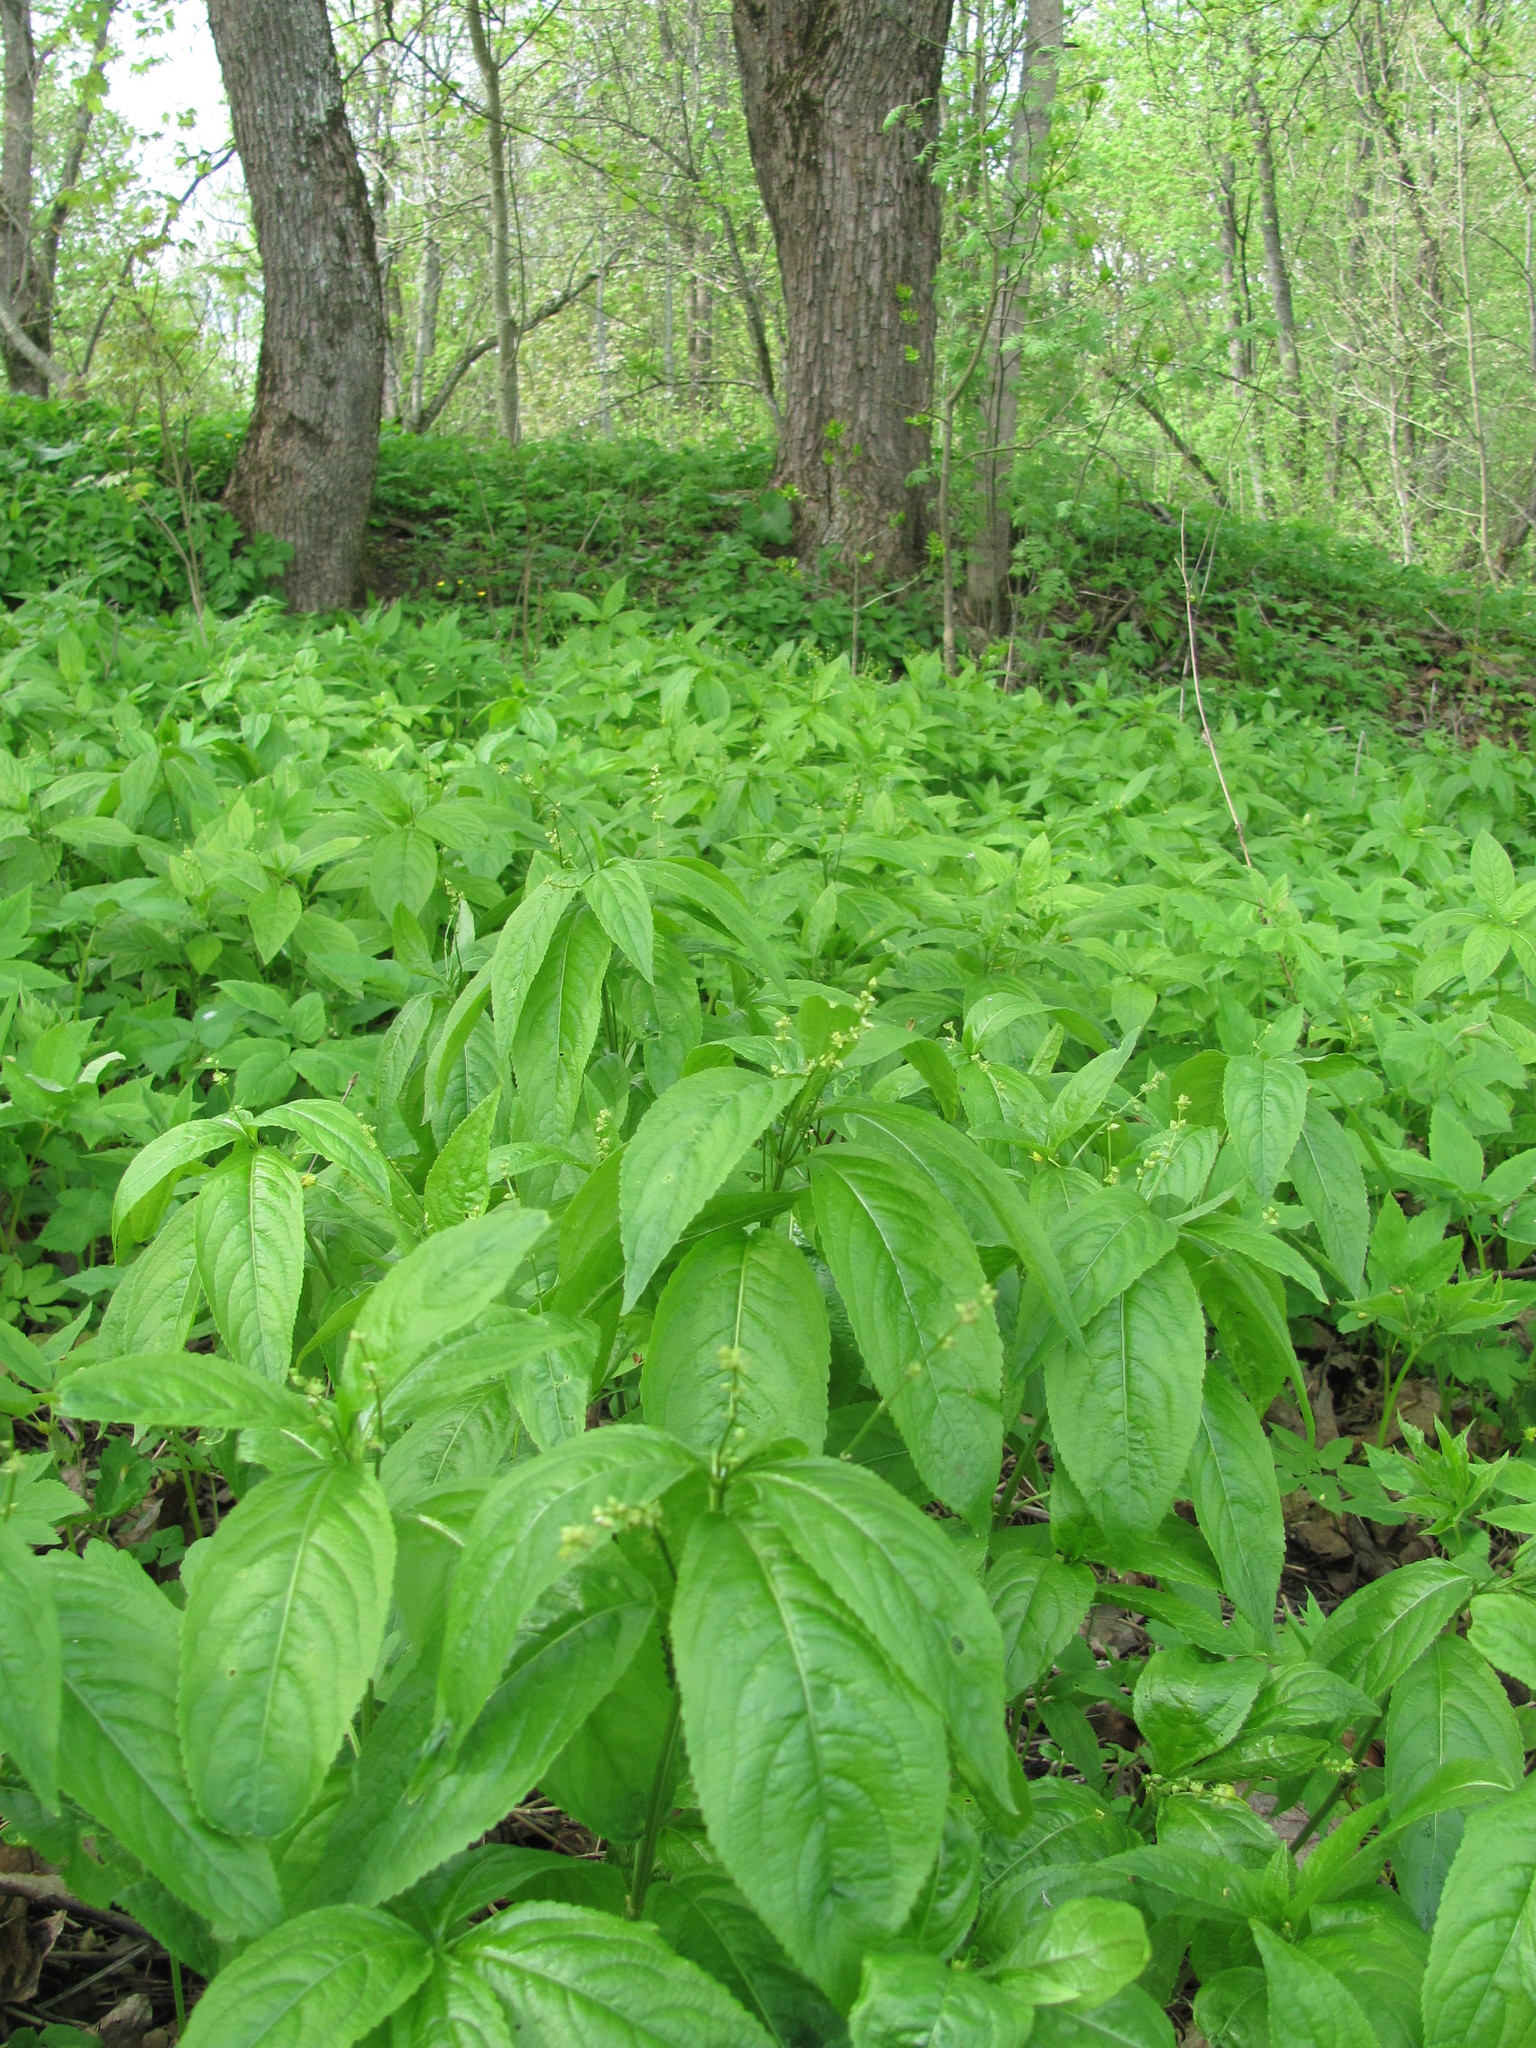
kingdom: Plantae
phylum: Tracheophyta
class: Magnoliopsida
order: Malpighiales
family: Euphorbiaceae
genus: Mercurialis
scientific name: Mercurialis perennis
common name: Dog mercury
